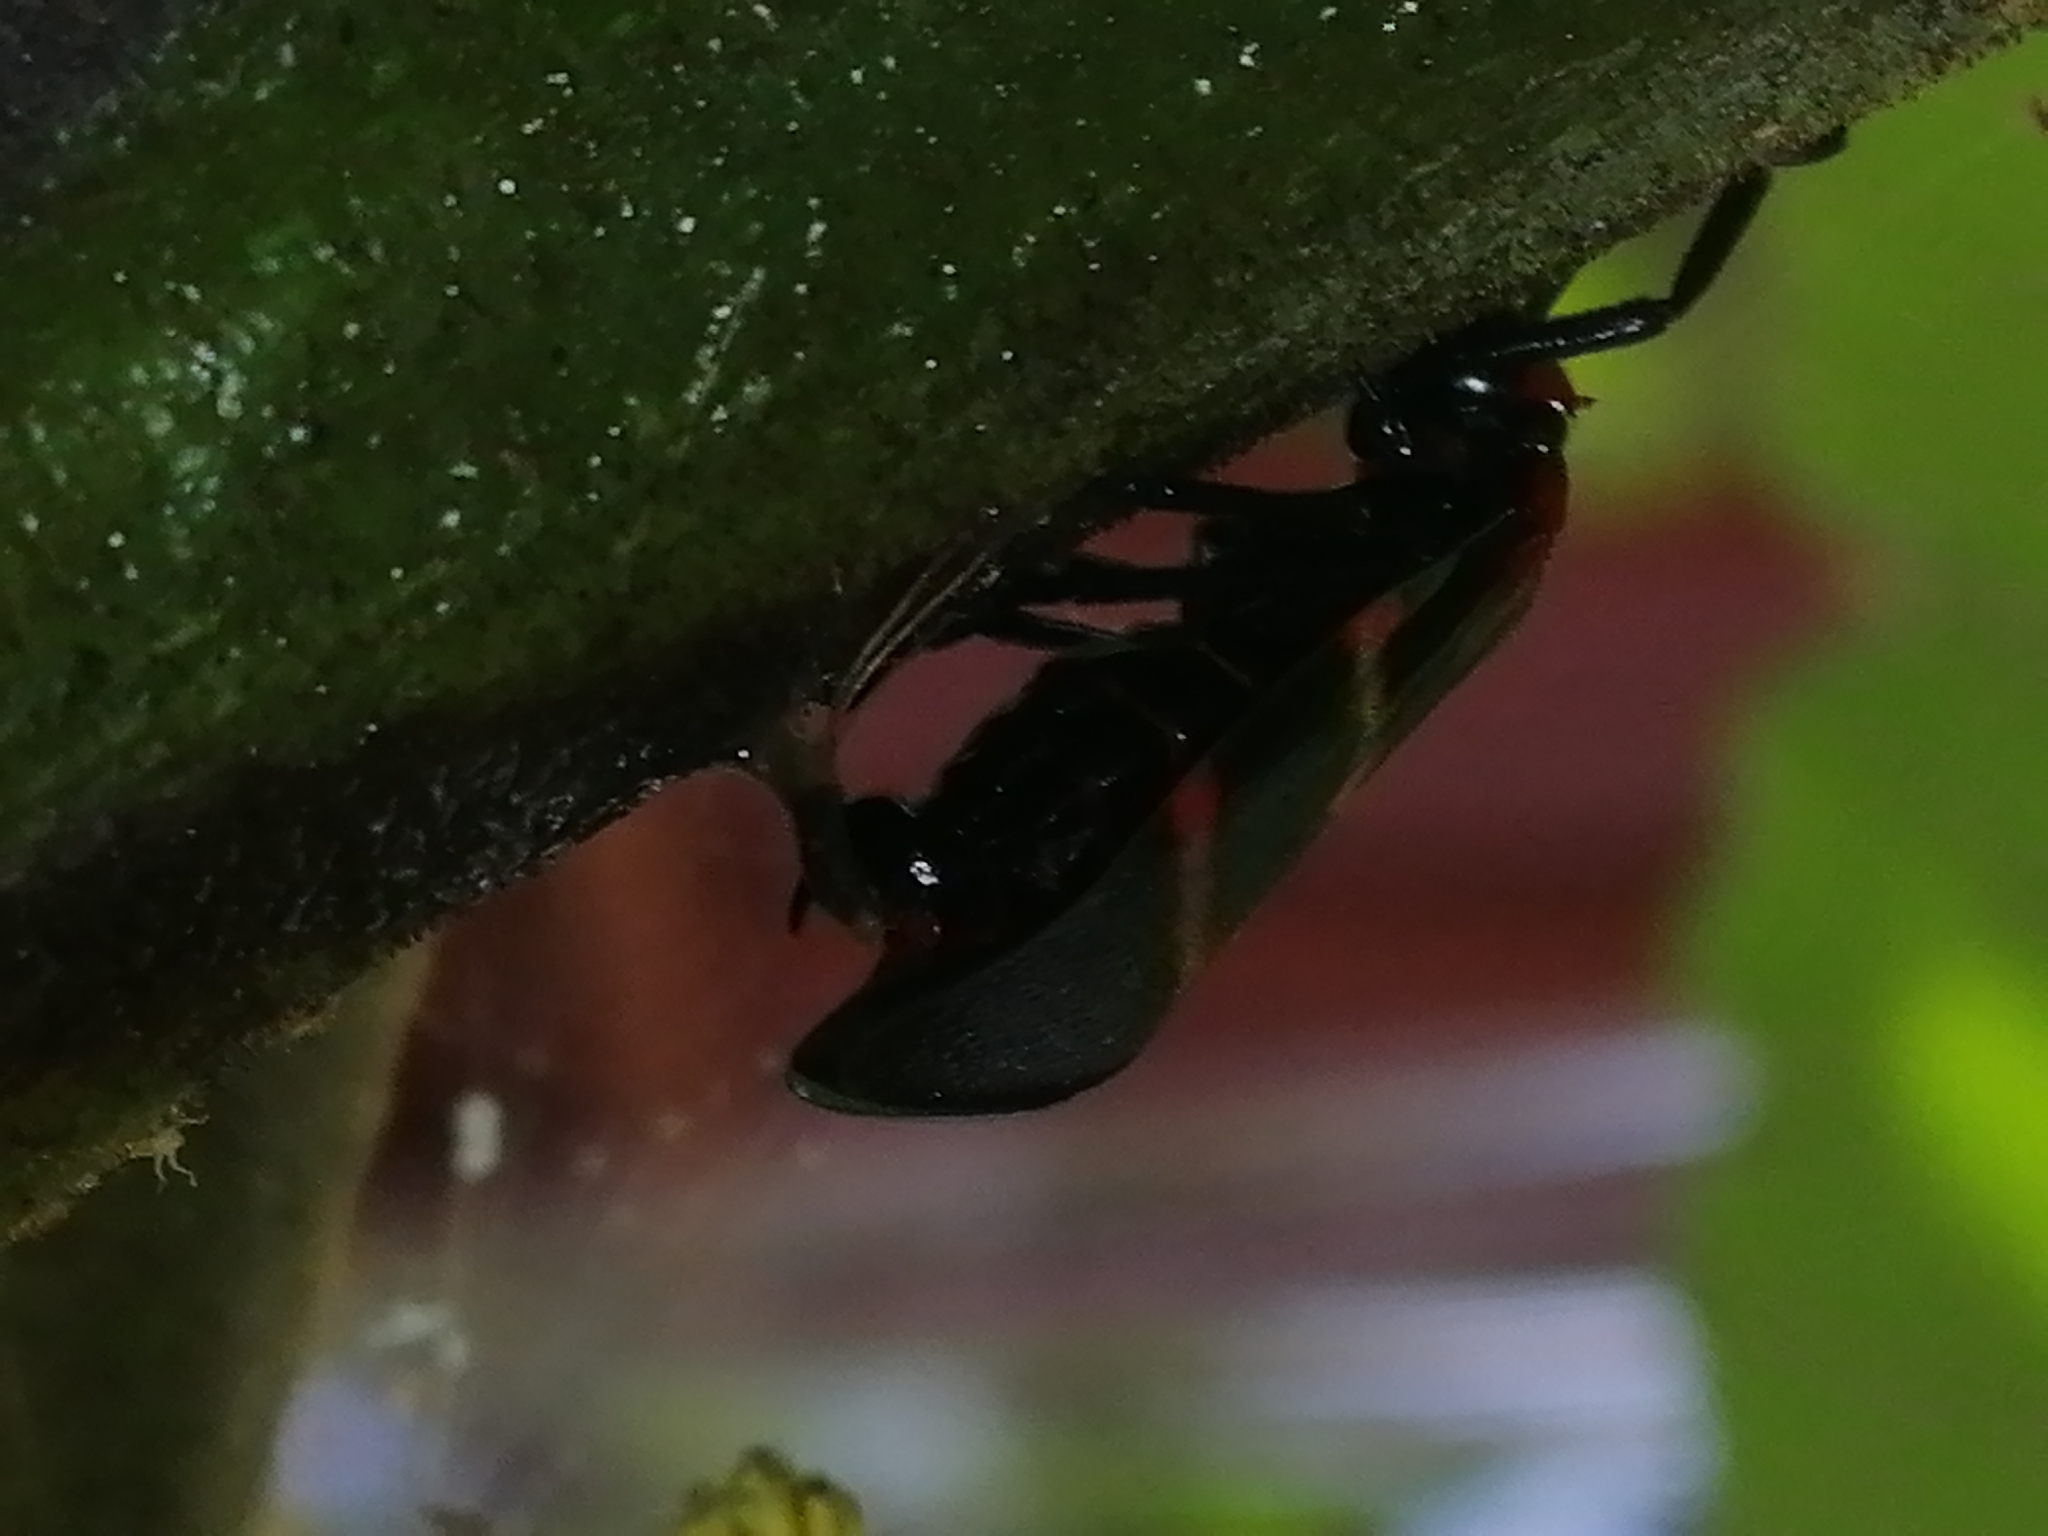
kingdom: Animalia
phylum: Arthropoda
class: Insecta
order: Hemiptera
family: Cercopidae
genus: Huaina
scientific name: Huaina inca
